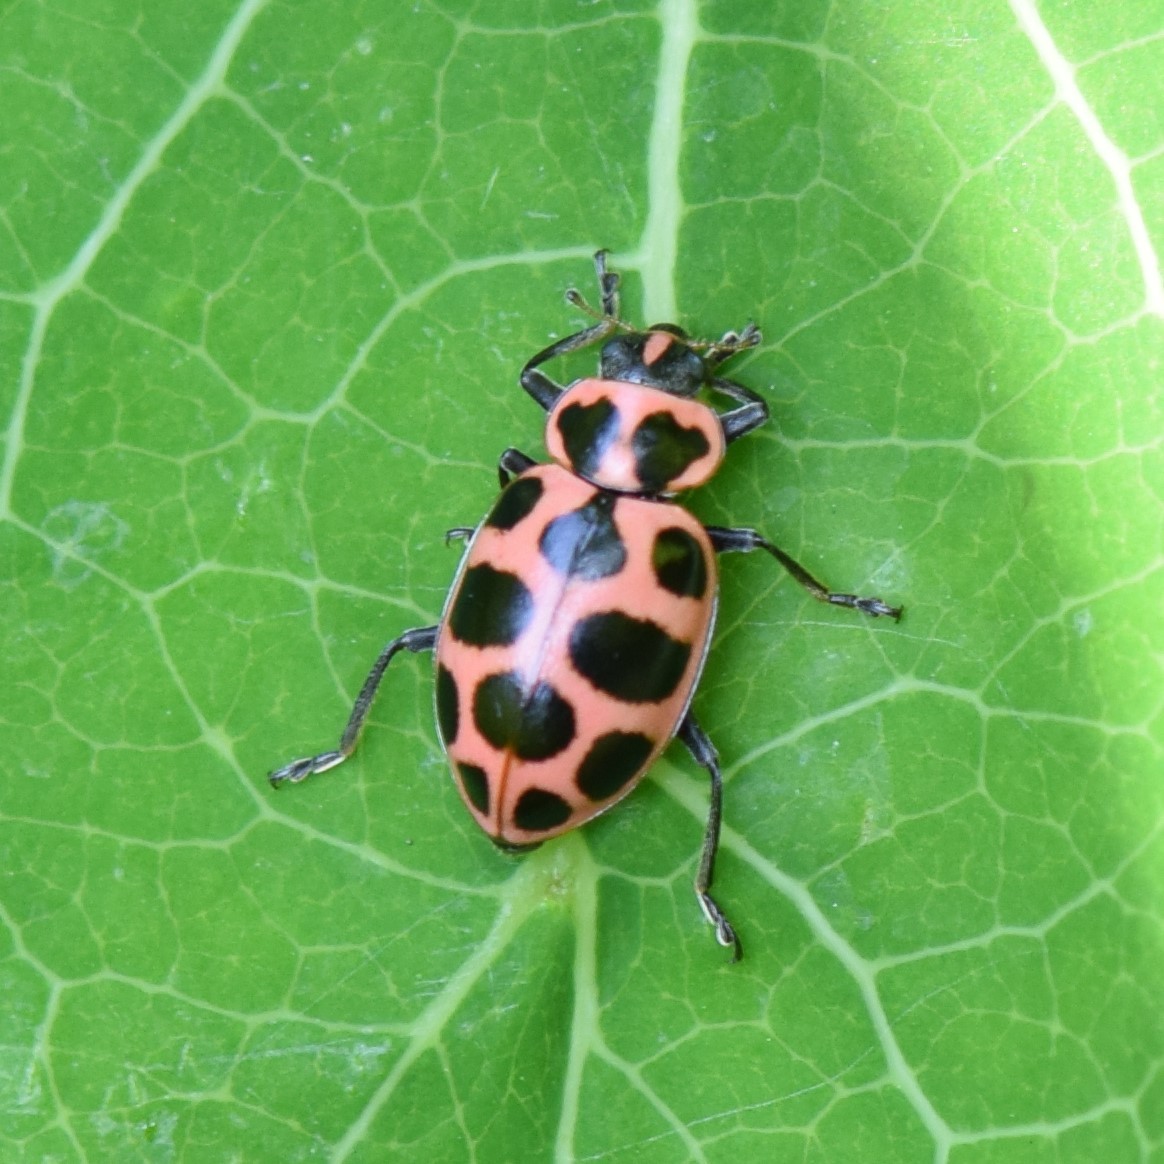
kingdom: Animalia
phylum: Arthropoda
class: Insecta
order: Coleoptera
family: Coccinellidae
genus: Coleomegilla
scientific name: Coleomegilla maculata
